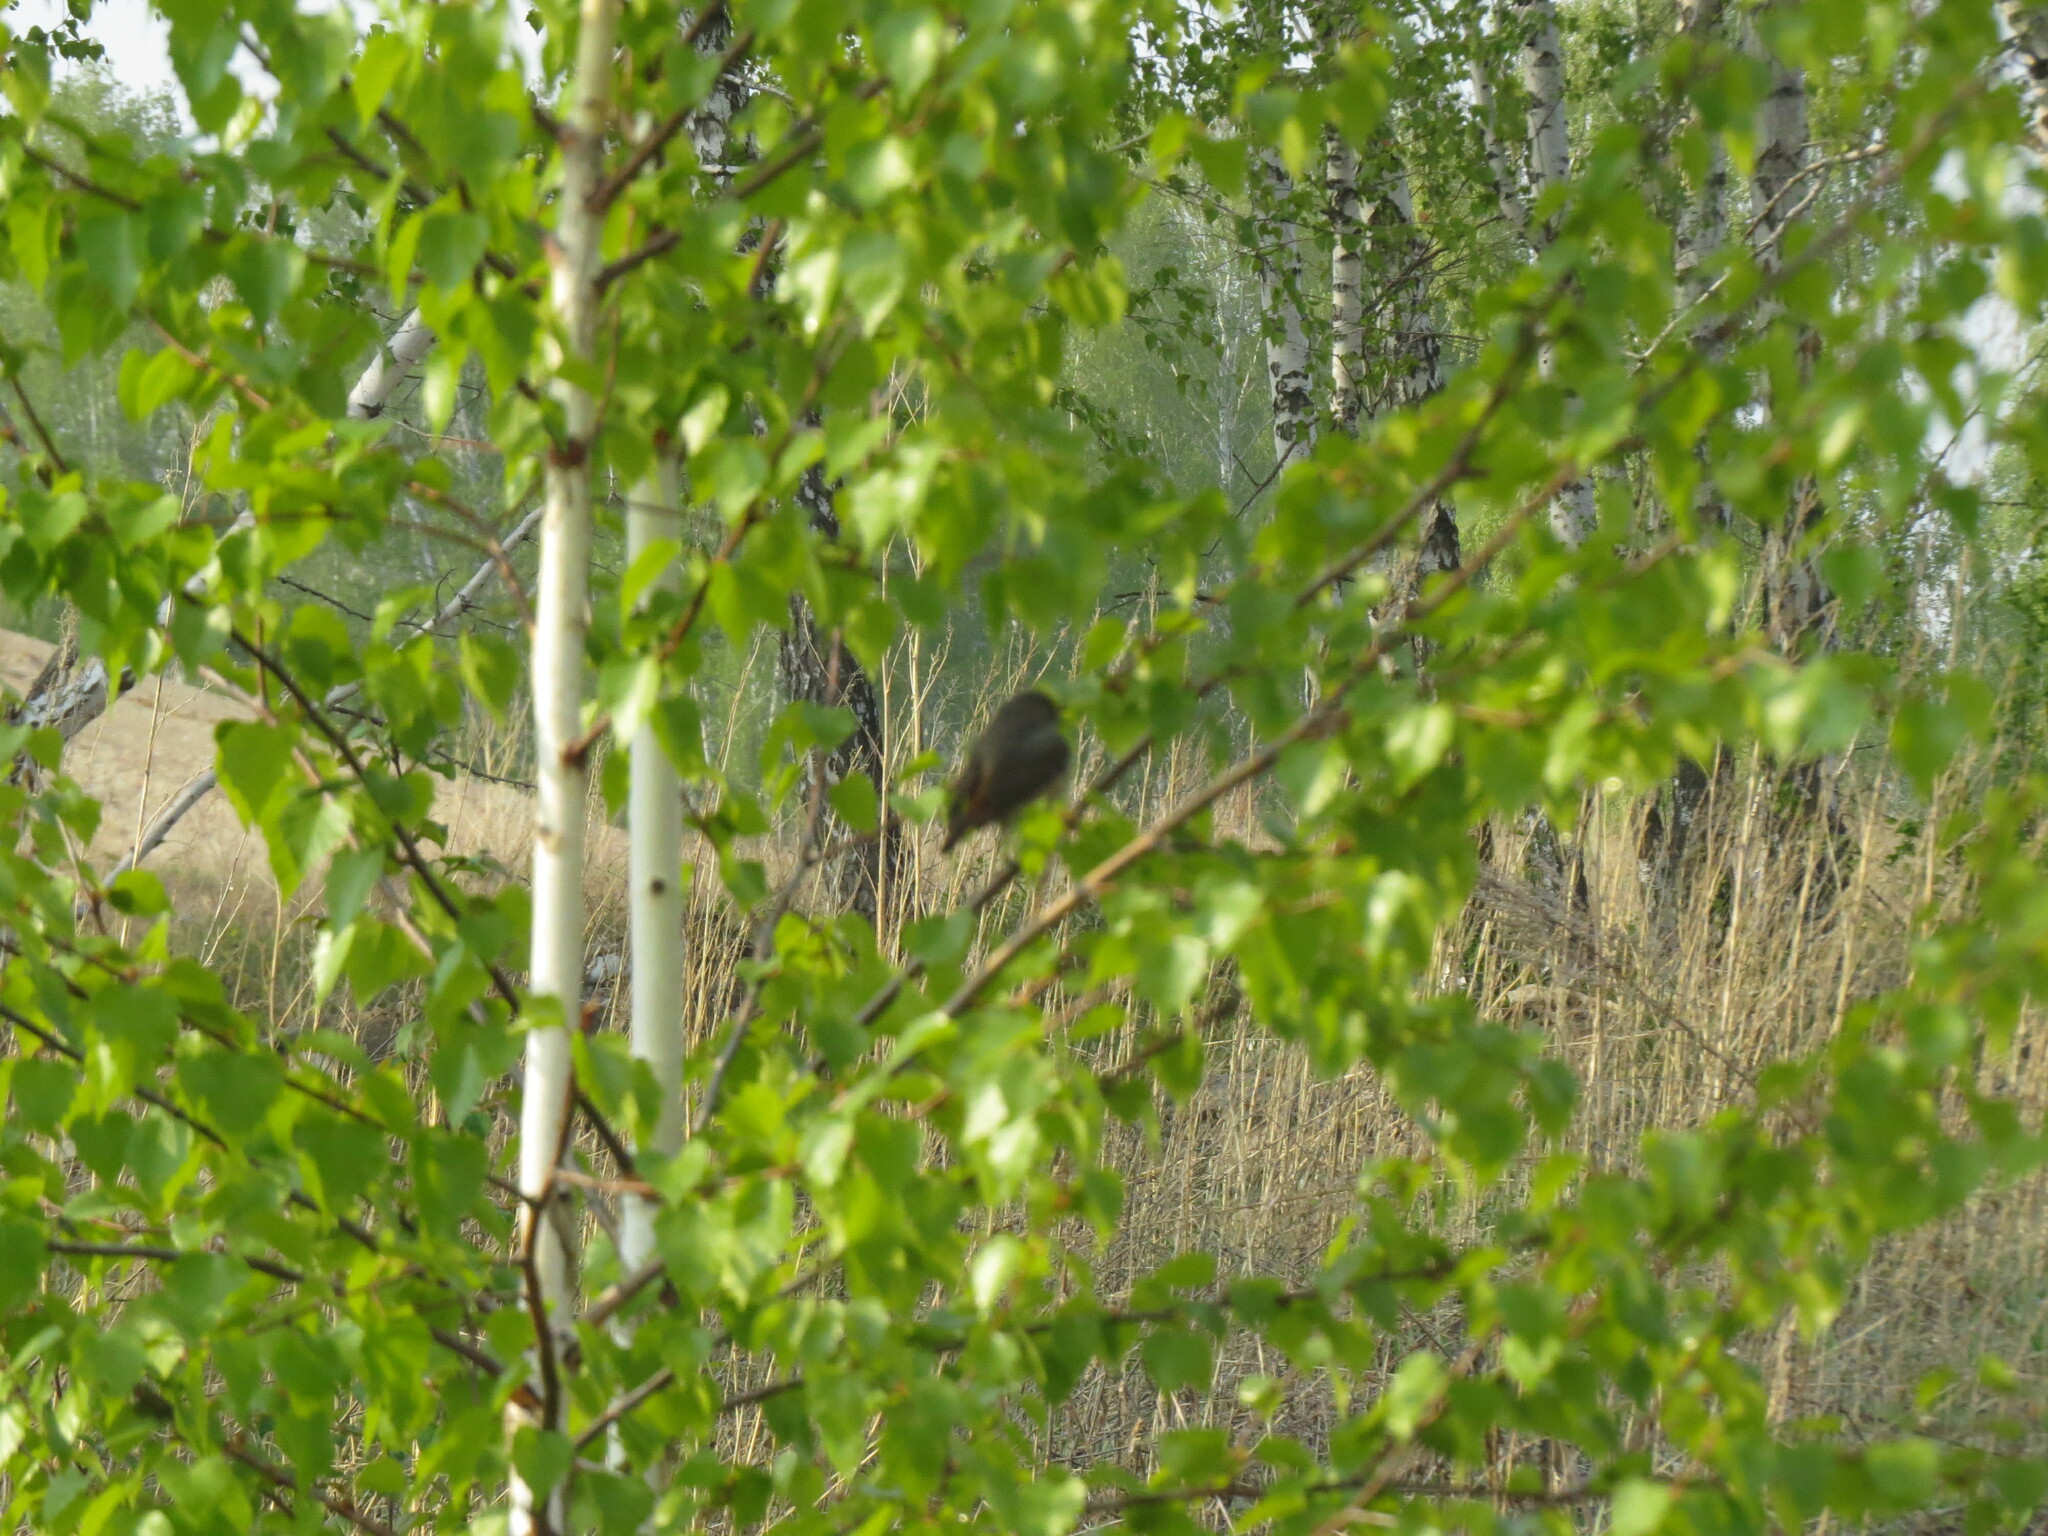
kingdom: Animalia
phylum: Chordata
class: Aves
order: Passeriformes
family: Muscicapidae
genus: Phoenicurus
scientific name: Phoenicurus phoenicurus
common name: Common redstart
